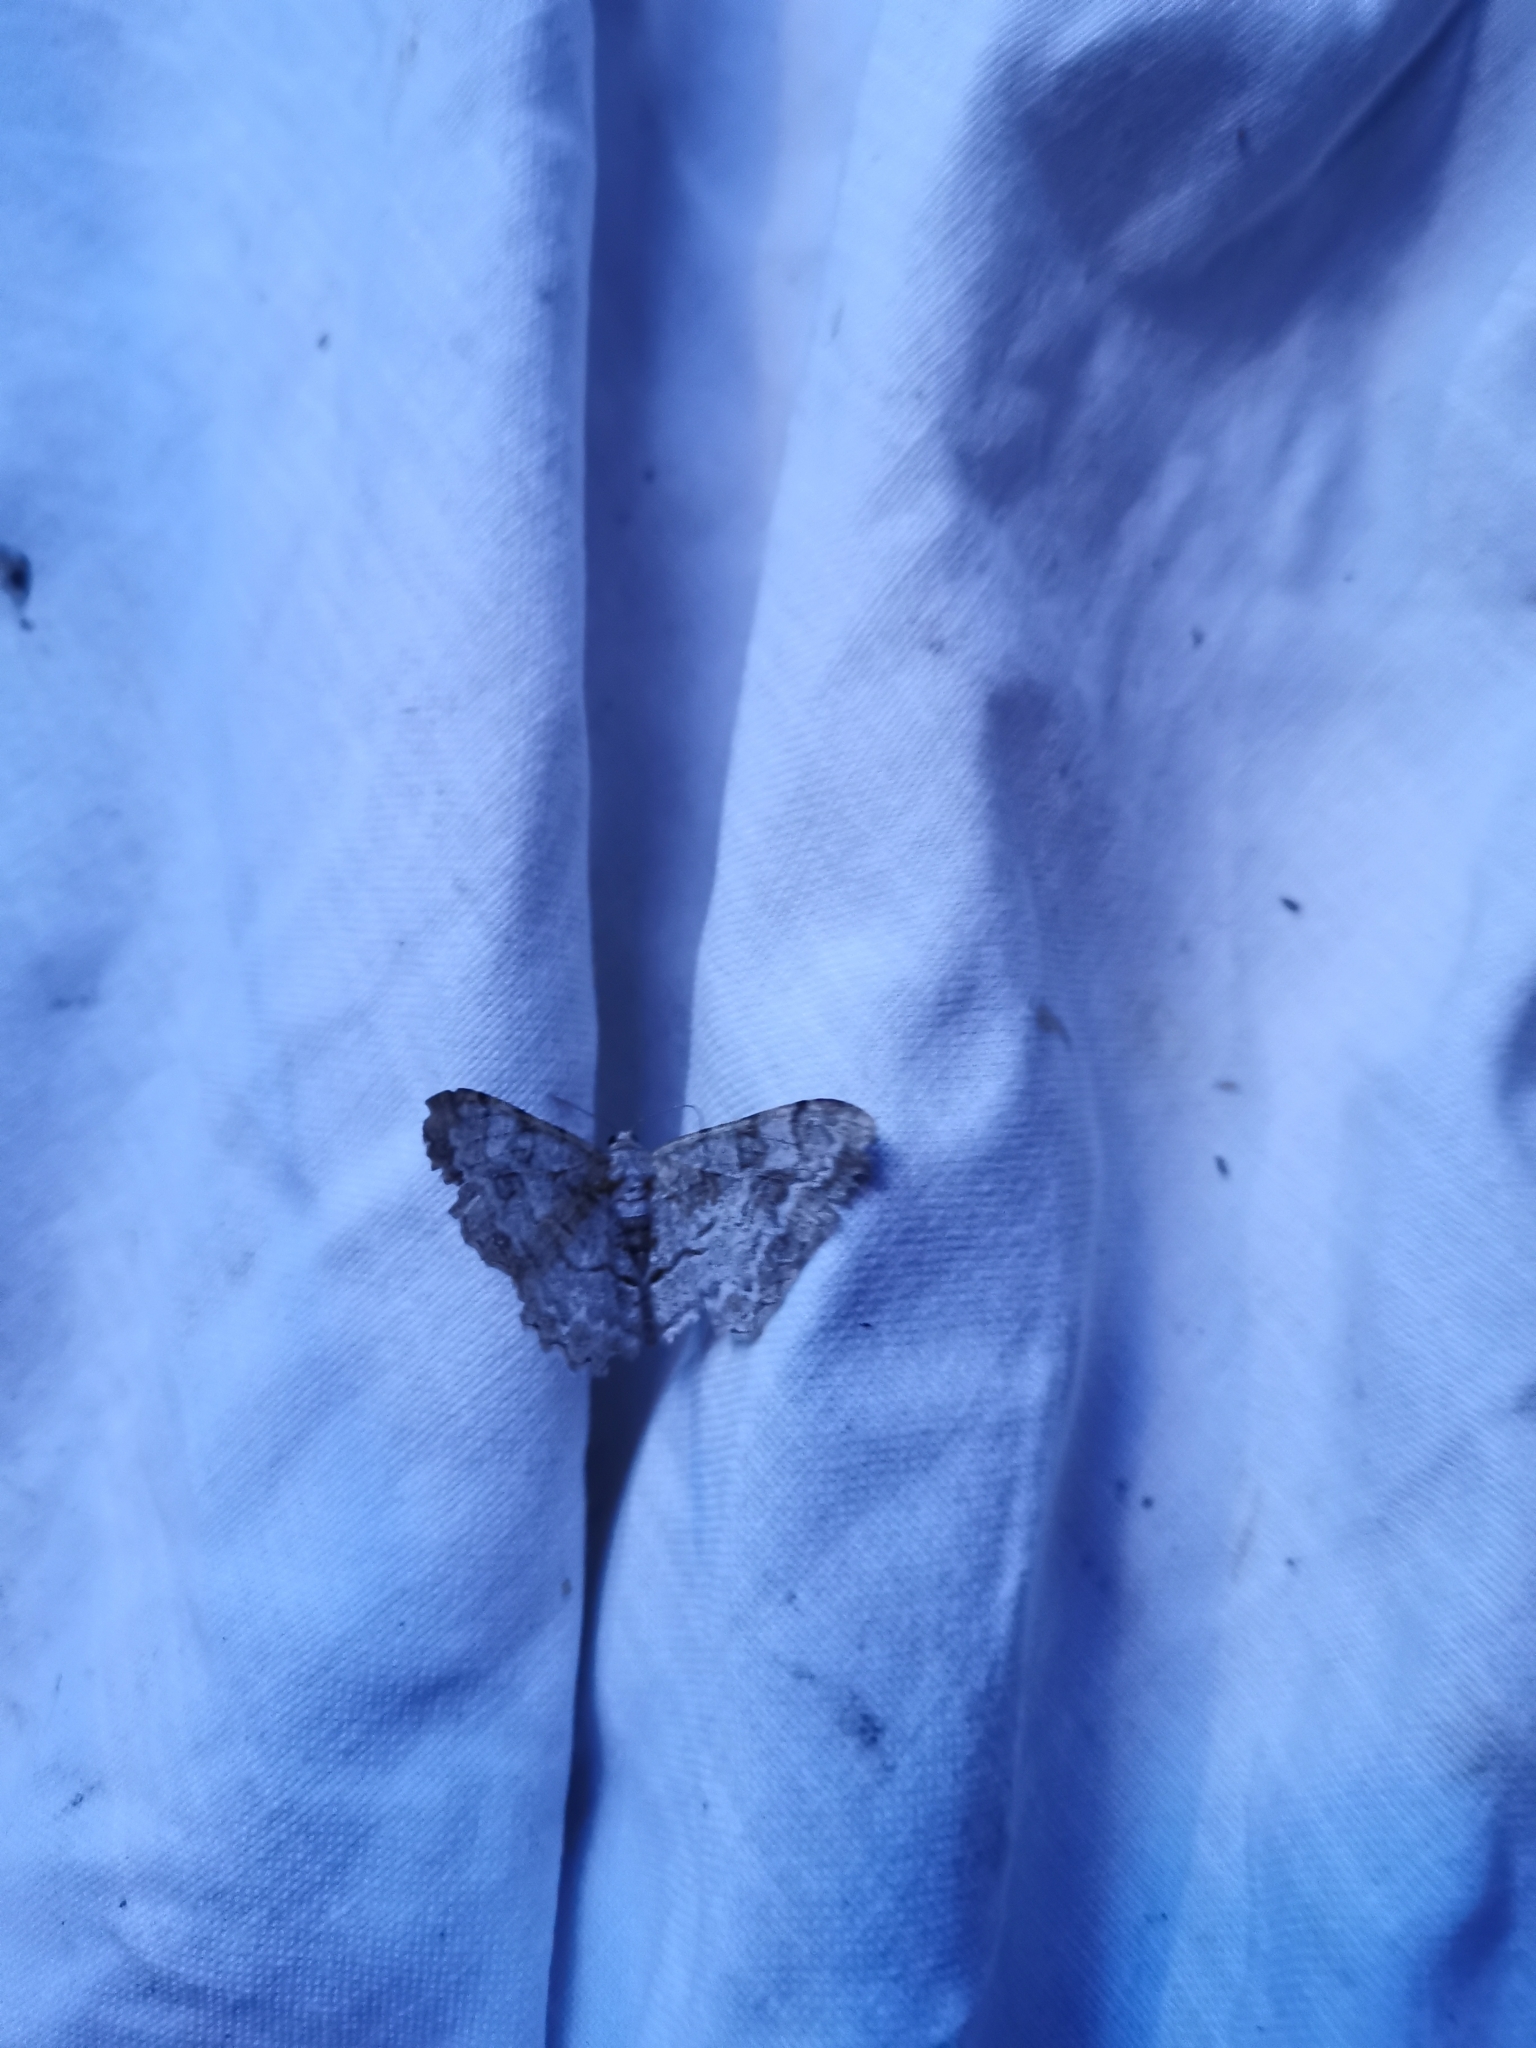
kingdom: Animalia
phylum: Arthropoda
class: Insecta
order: Lepidoptera
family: Geometridae
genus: Alcis
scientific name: Alcis repandata
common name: Mottled beauty
